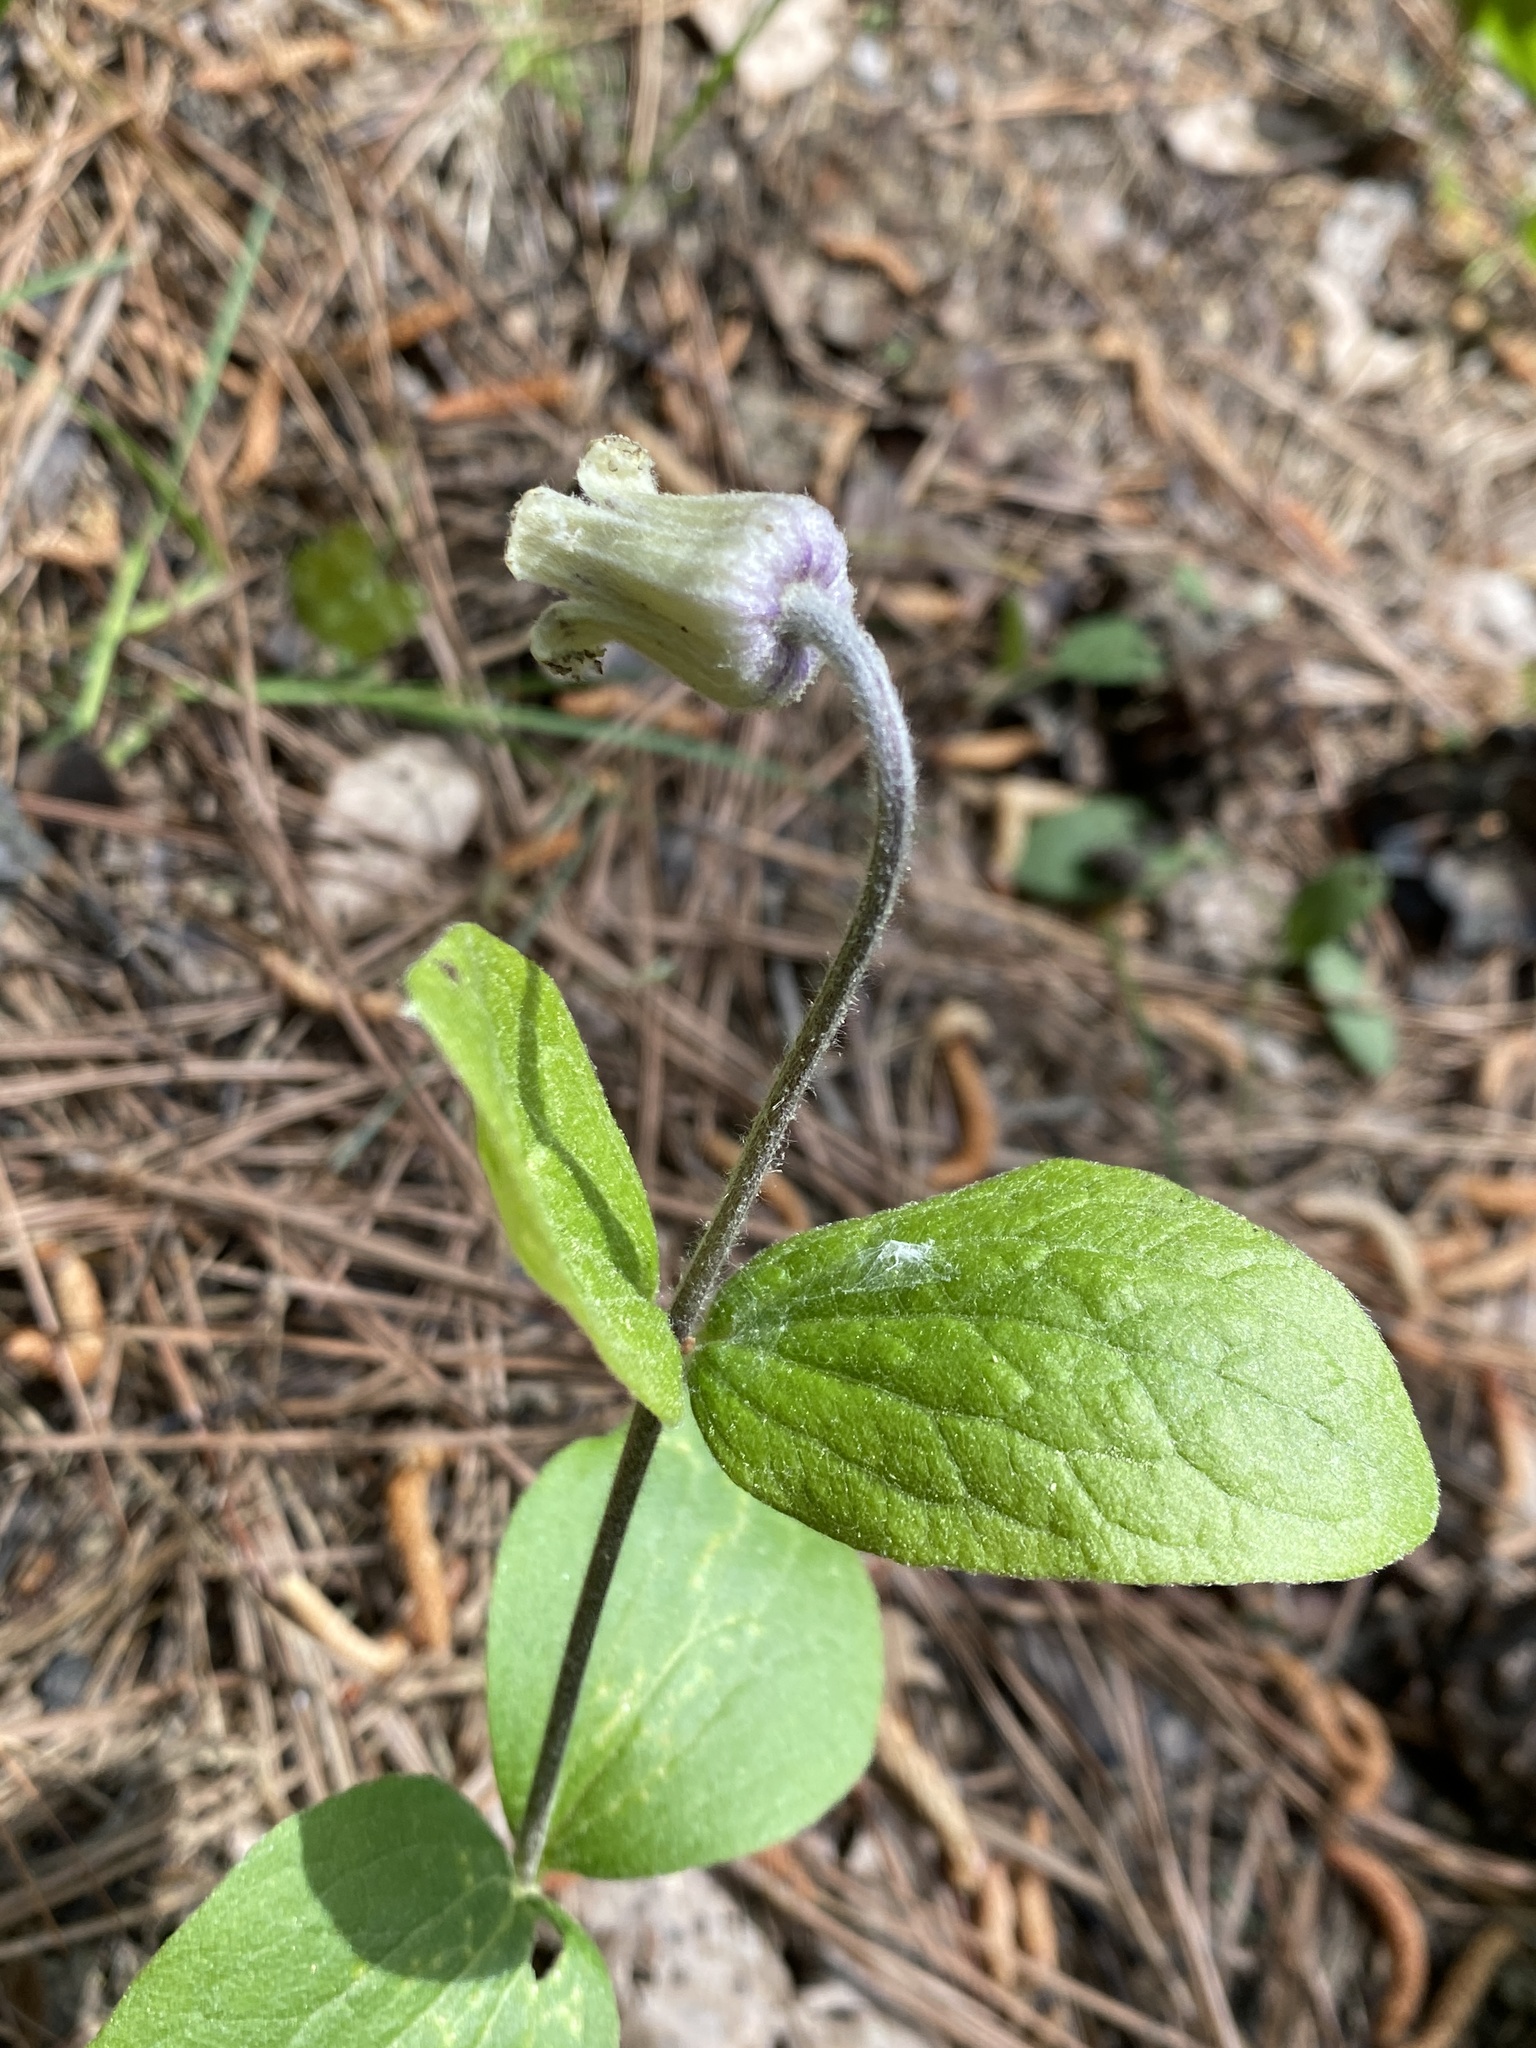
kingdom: Plantae
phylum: Tracheophyta
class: Magnoliopsida
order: Ranunculales
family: Ranunculaceae
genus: Clematis
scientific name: Clematis ochroleuca
